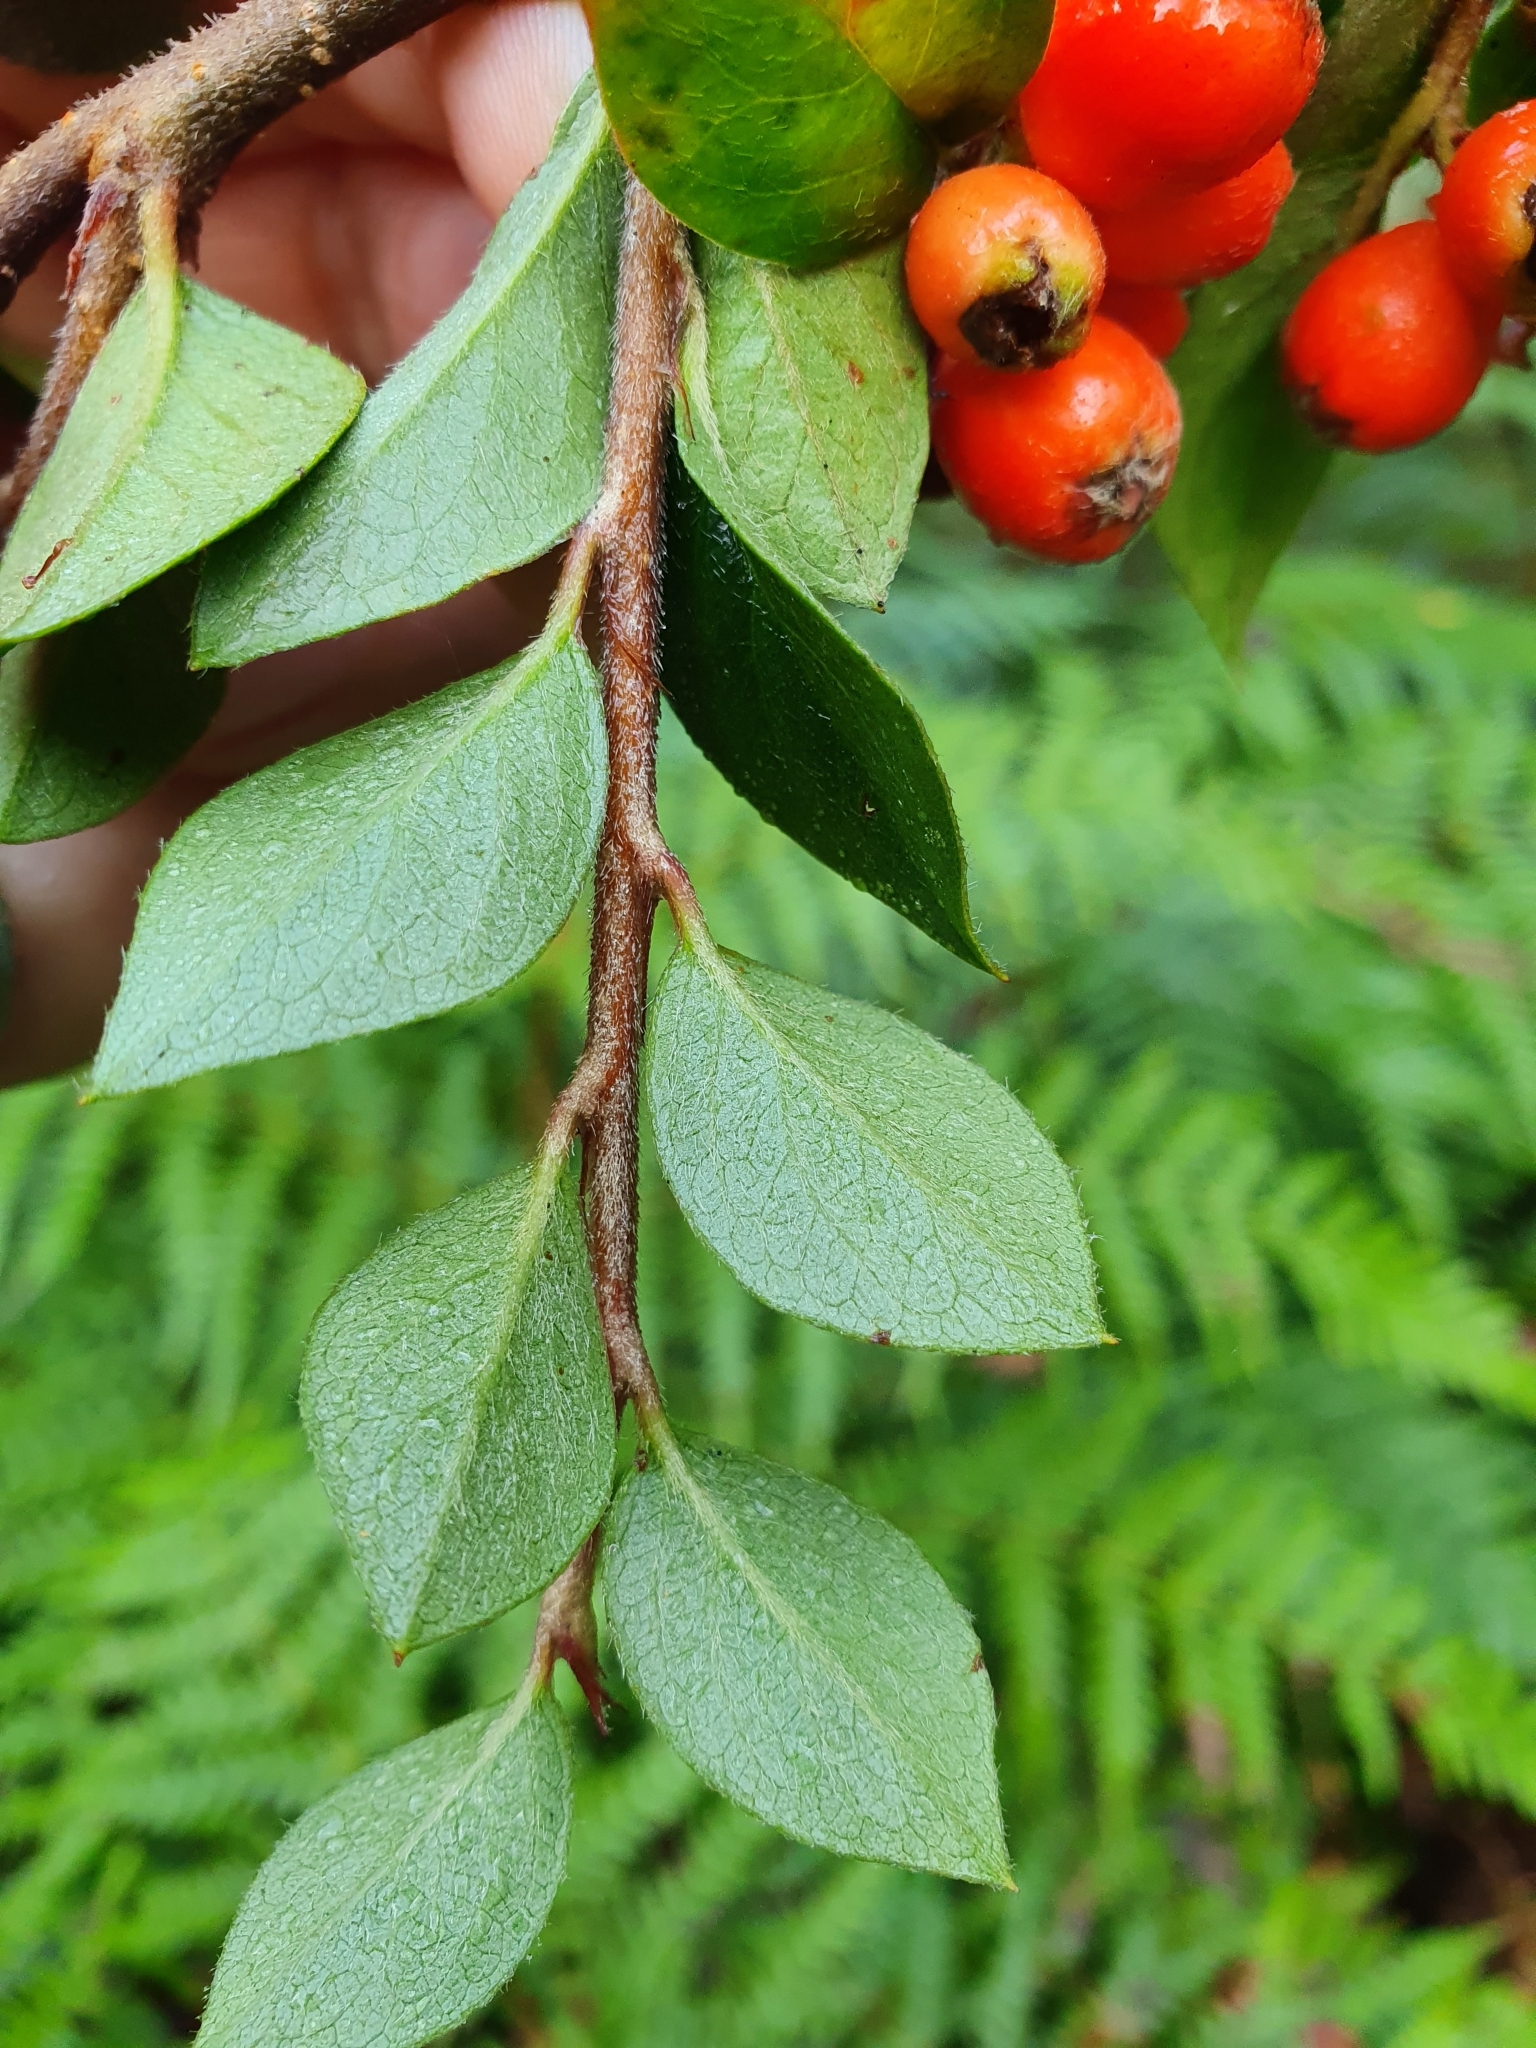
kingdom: Plantae
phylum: Tracheophyta
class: Magnoliopsida
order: Rosales
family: Rosaceae
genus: Cotoneaster
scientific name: Cotoneaster simonsii
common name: Himalayan cotoneaster
